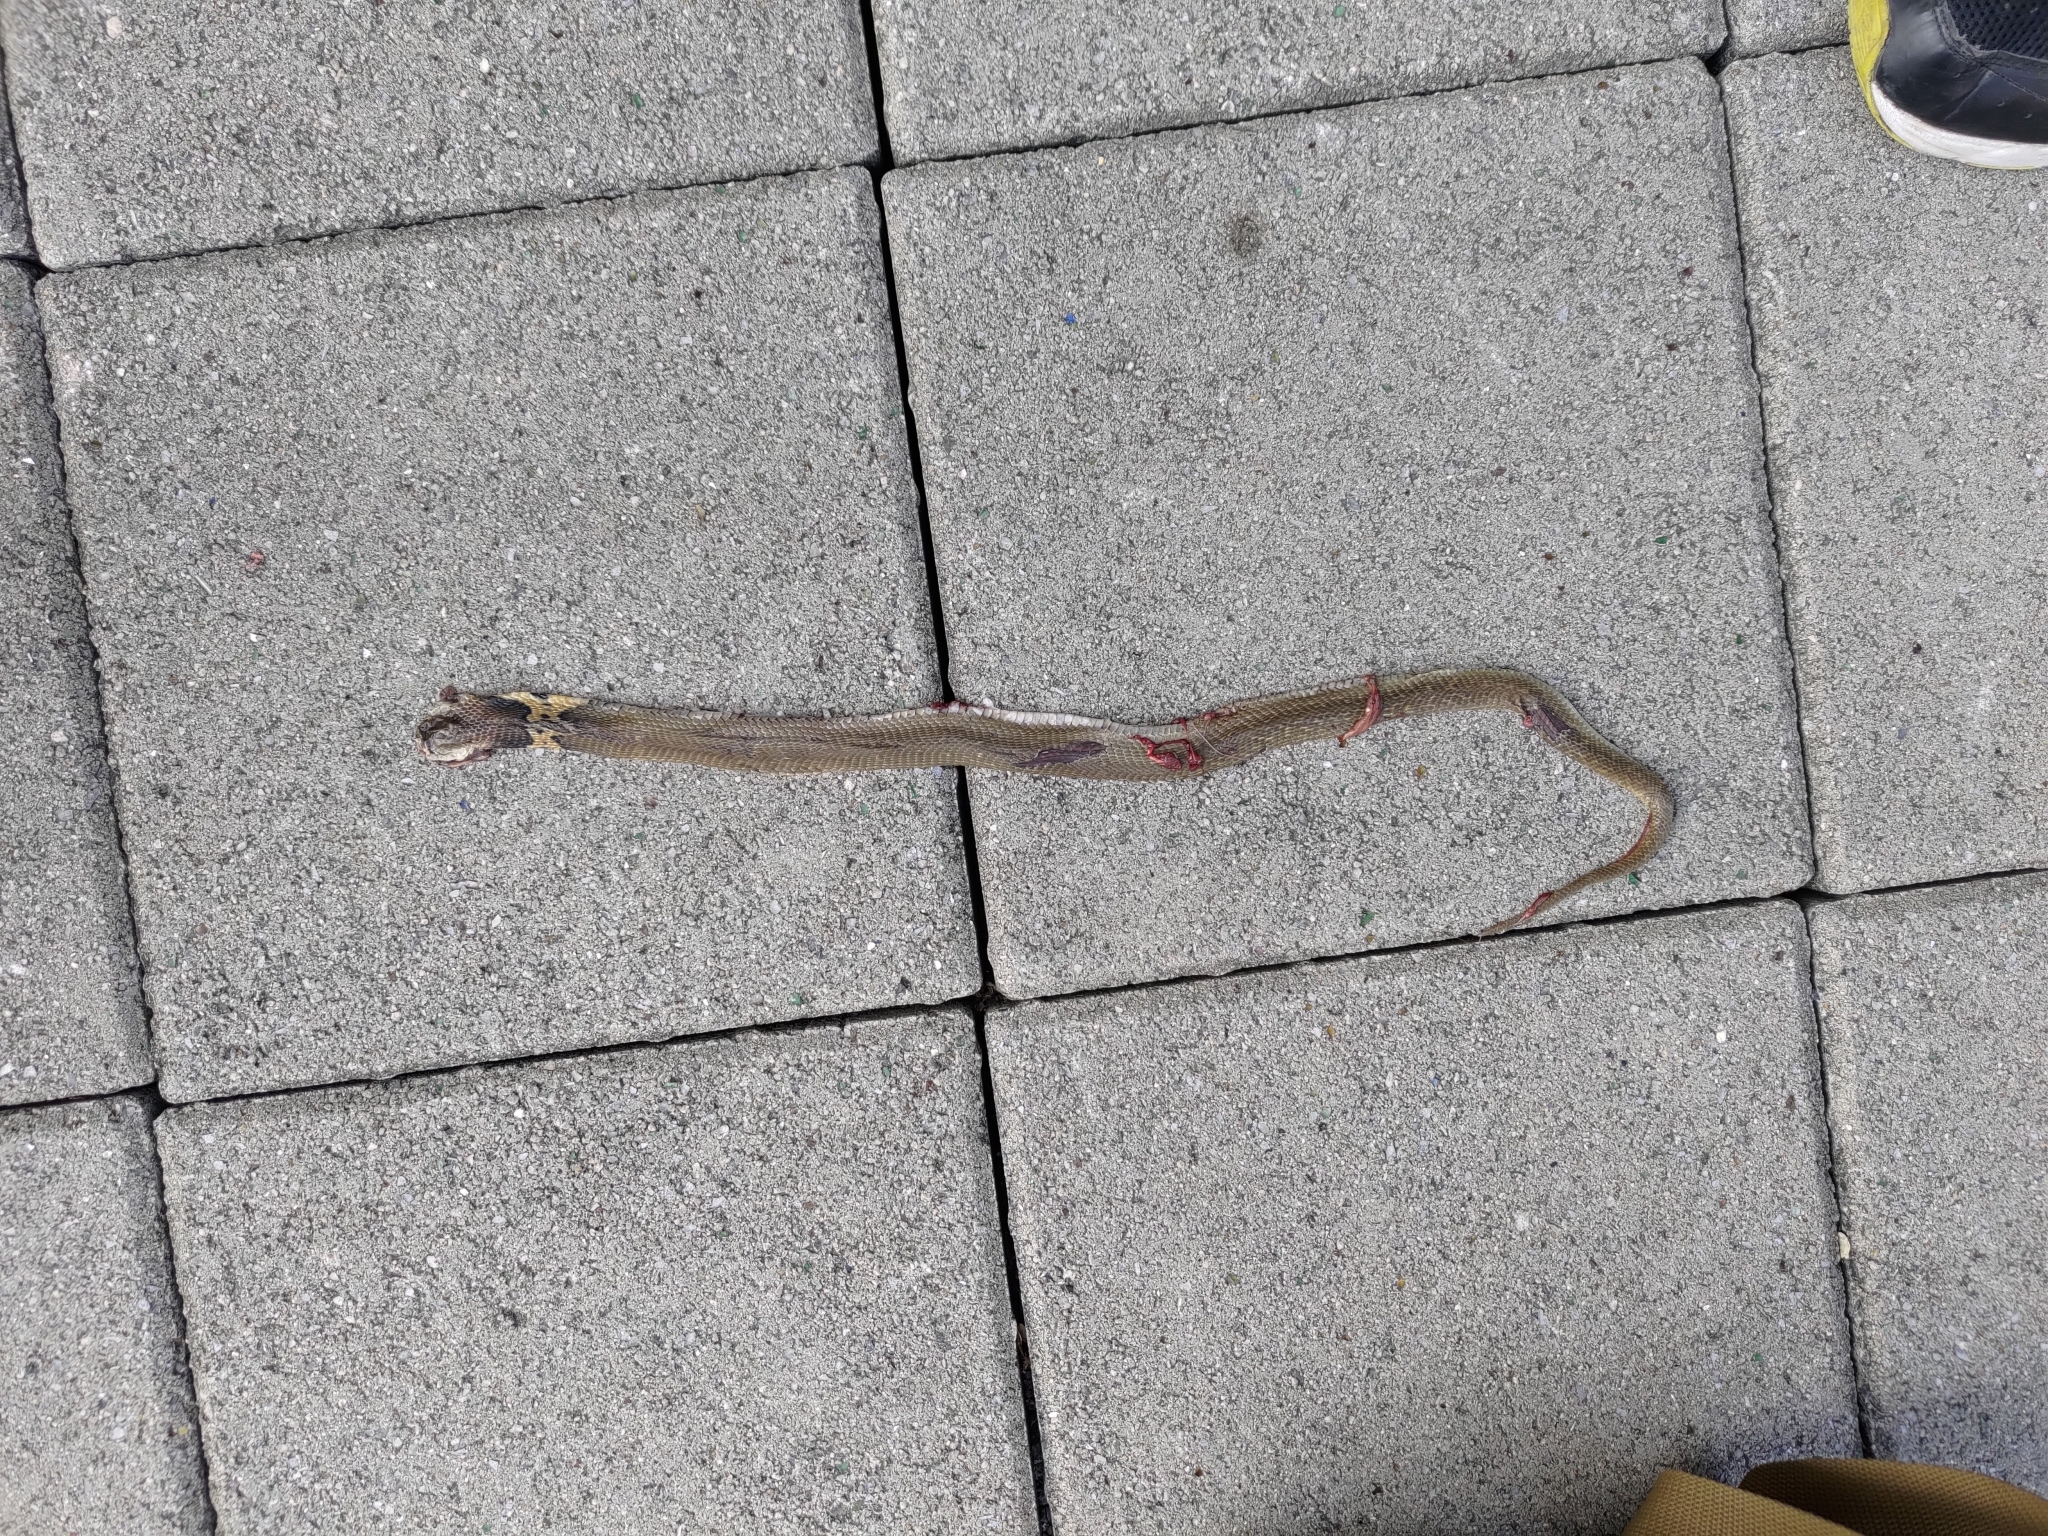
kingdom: Animalia
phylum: Chordata
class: Squamata
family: Elapidae
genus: Naja
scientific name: Naja atra
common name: Chinese cobra
